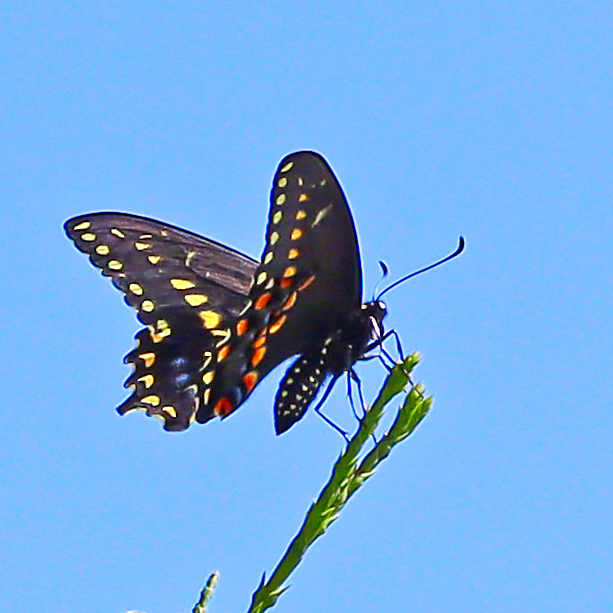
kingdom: Animalia
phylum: Arthropoda
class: Insecta
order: Lepidoptera
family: Papilionidae
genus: Papilio
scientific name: Papilio polyxenes
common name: Black swallowtail
